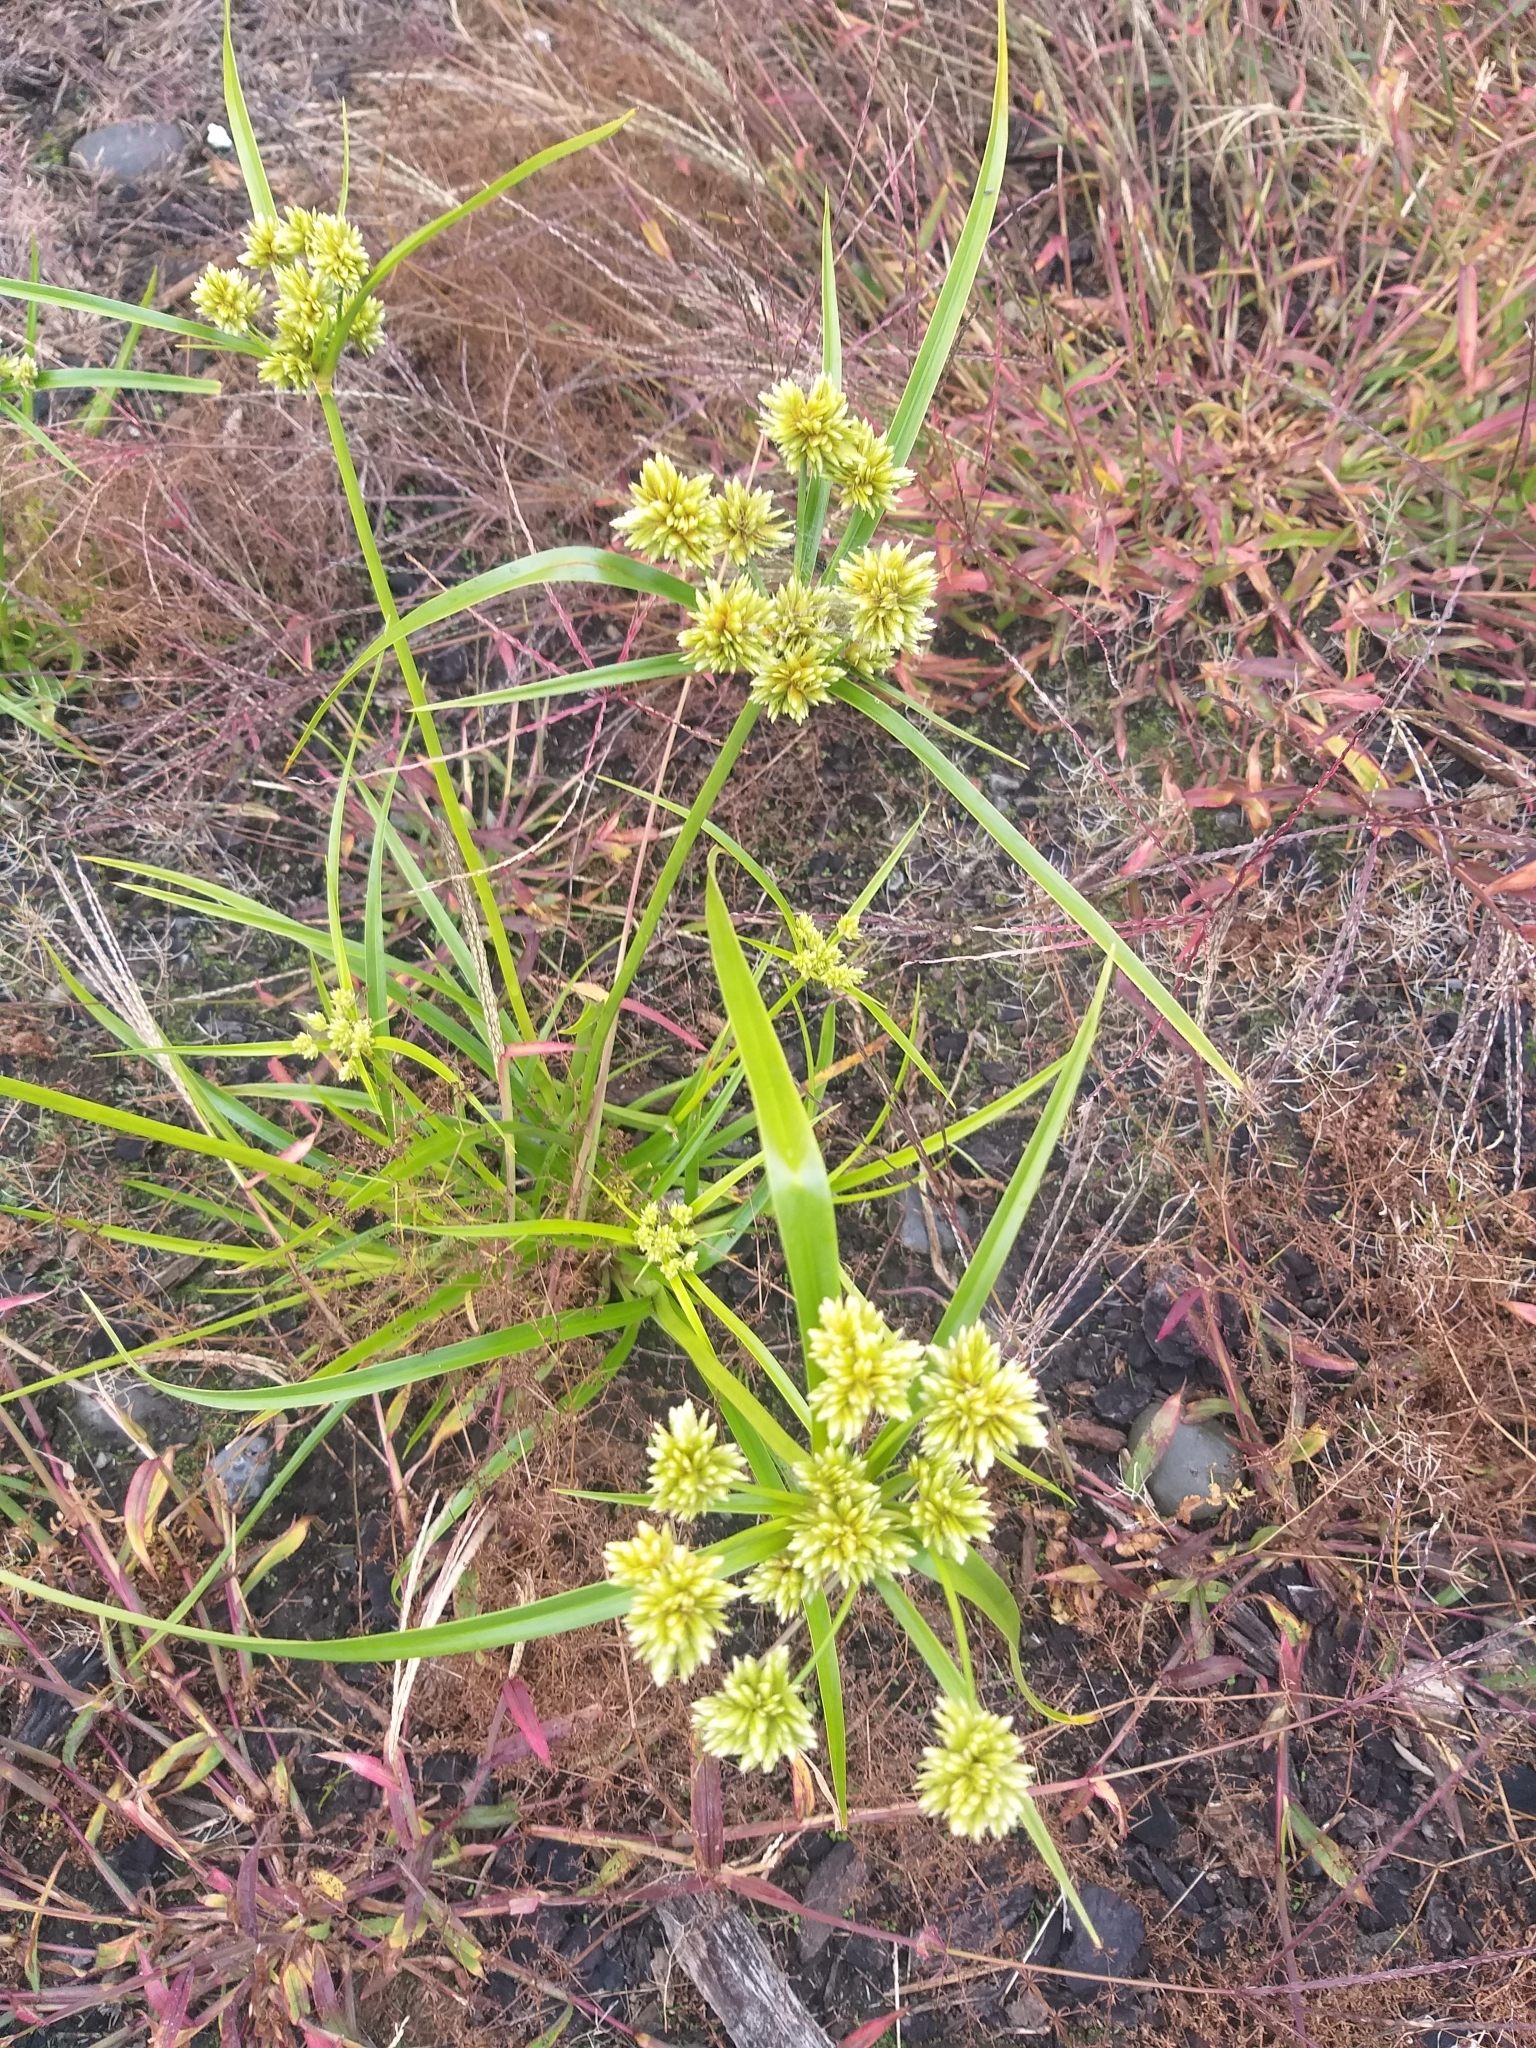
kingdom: Plantae
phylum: Tracheophyta
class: Liliopsida
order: Poales
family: Cyperaceae
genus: Cyperus
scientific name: Cyperus eragrostis
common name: Tall flatsedge
